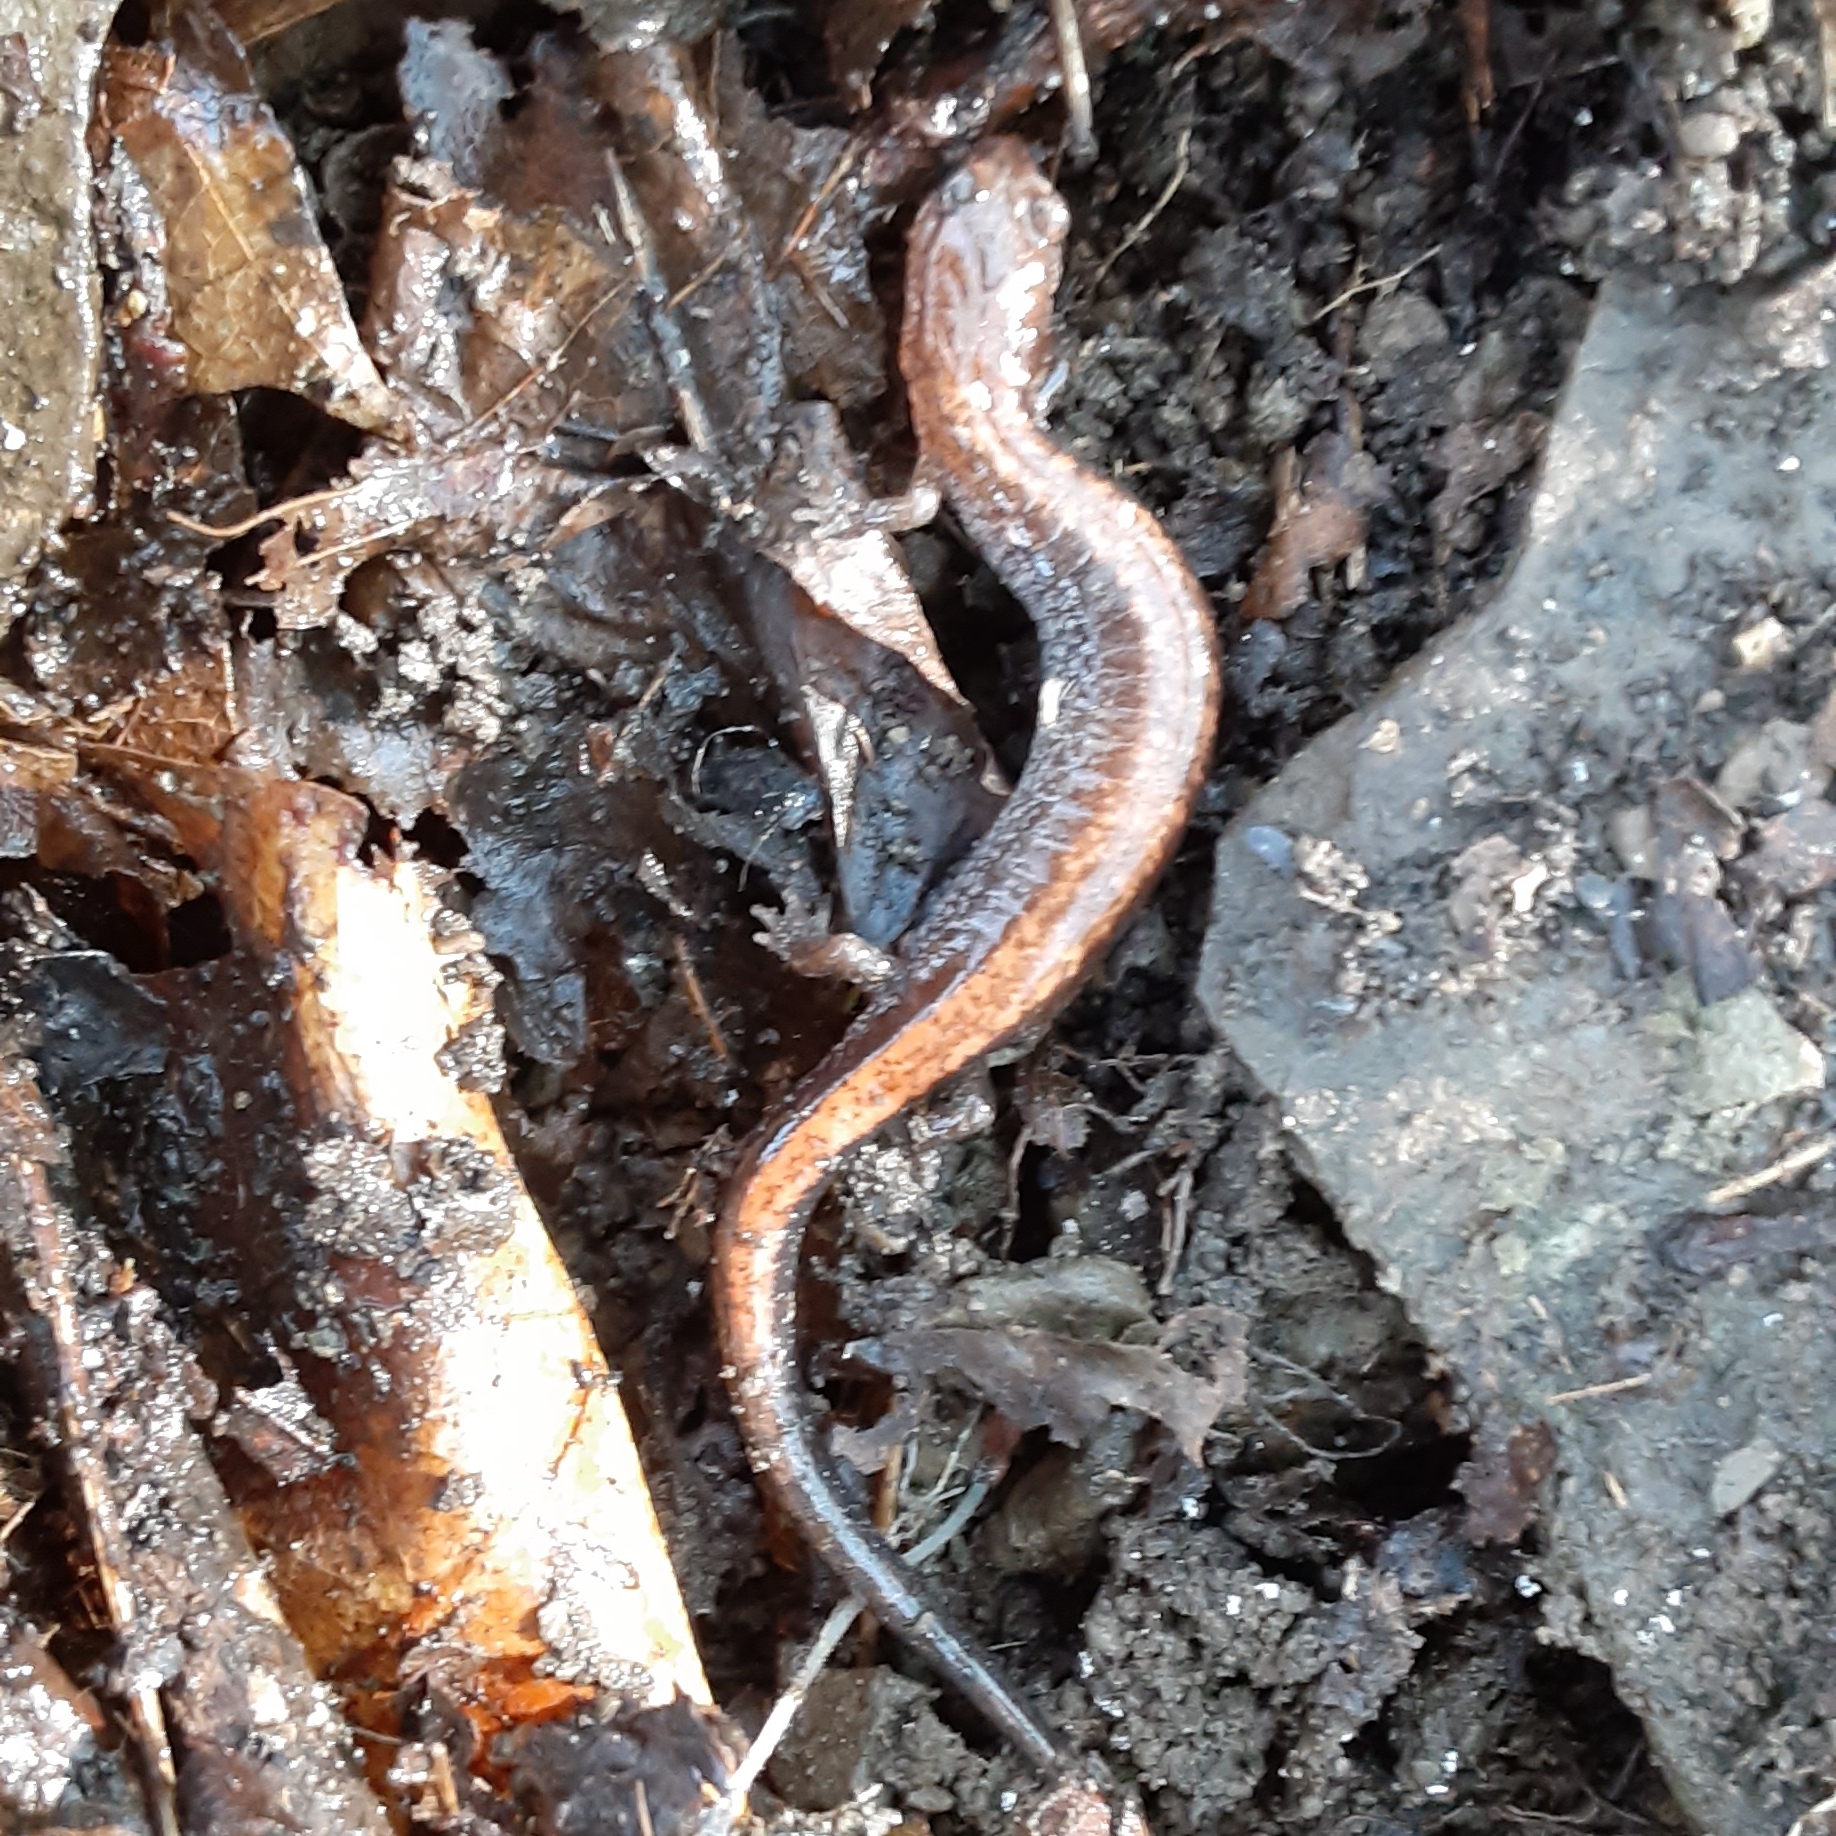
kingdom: Animalia
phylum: Chordata
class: Amphibia
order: Caudata
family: Plethodontidae
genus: Plethodon
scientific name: Plethodon cinereus
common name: Redback salamander
